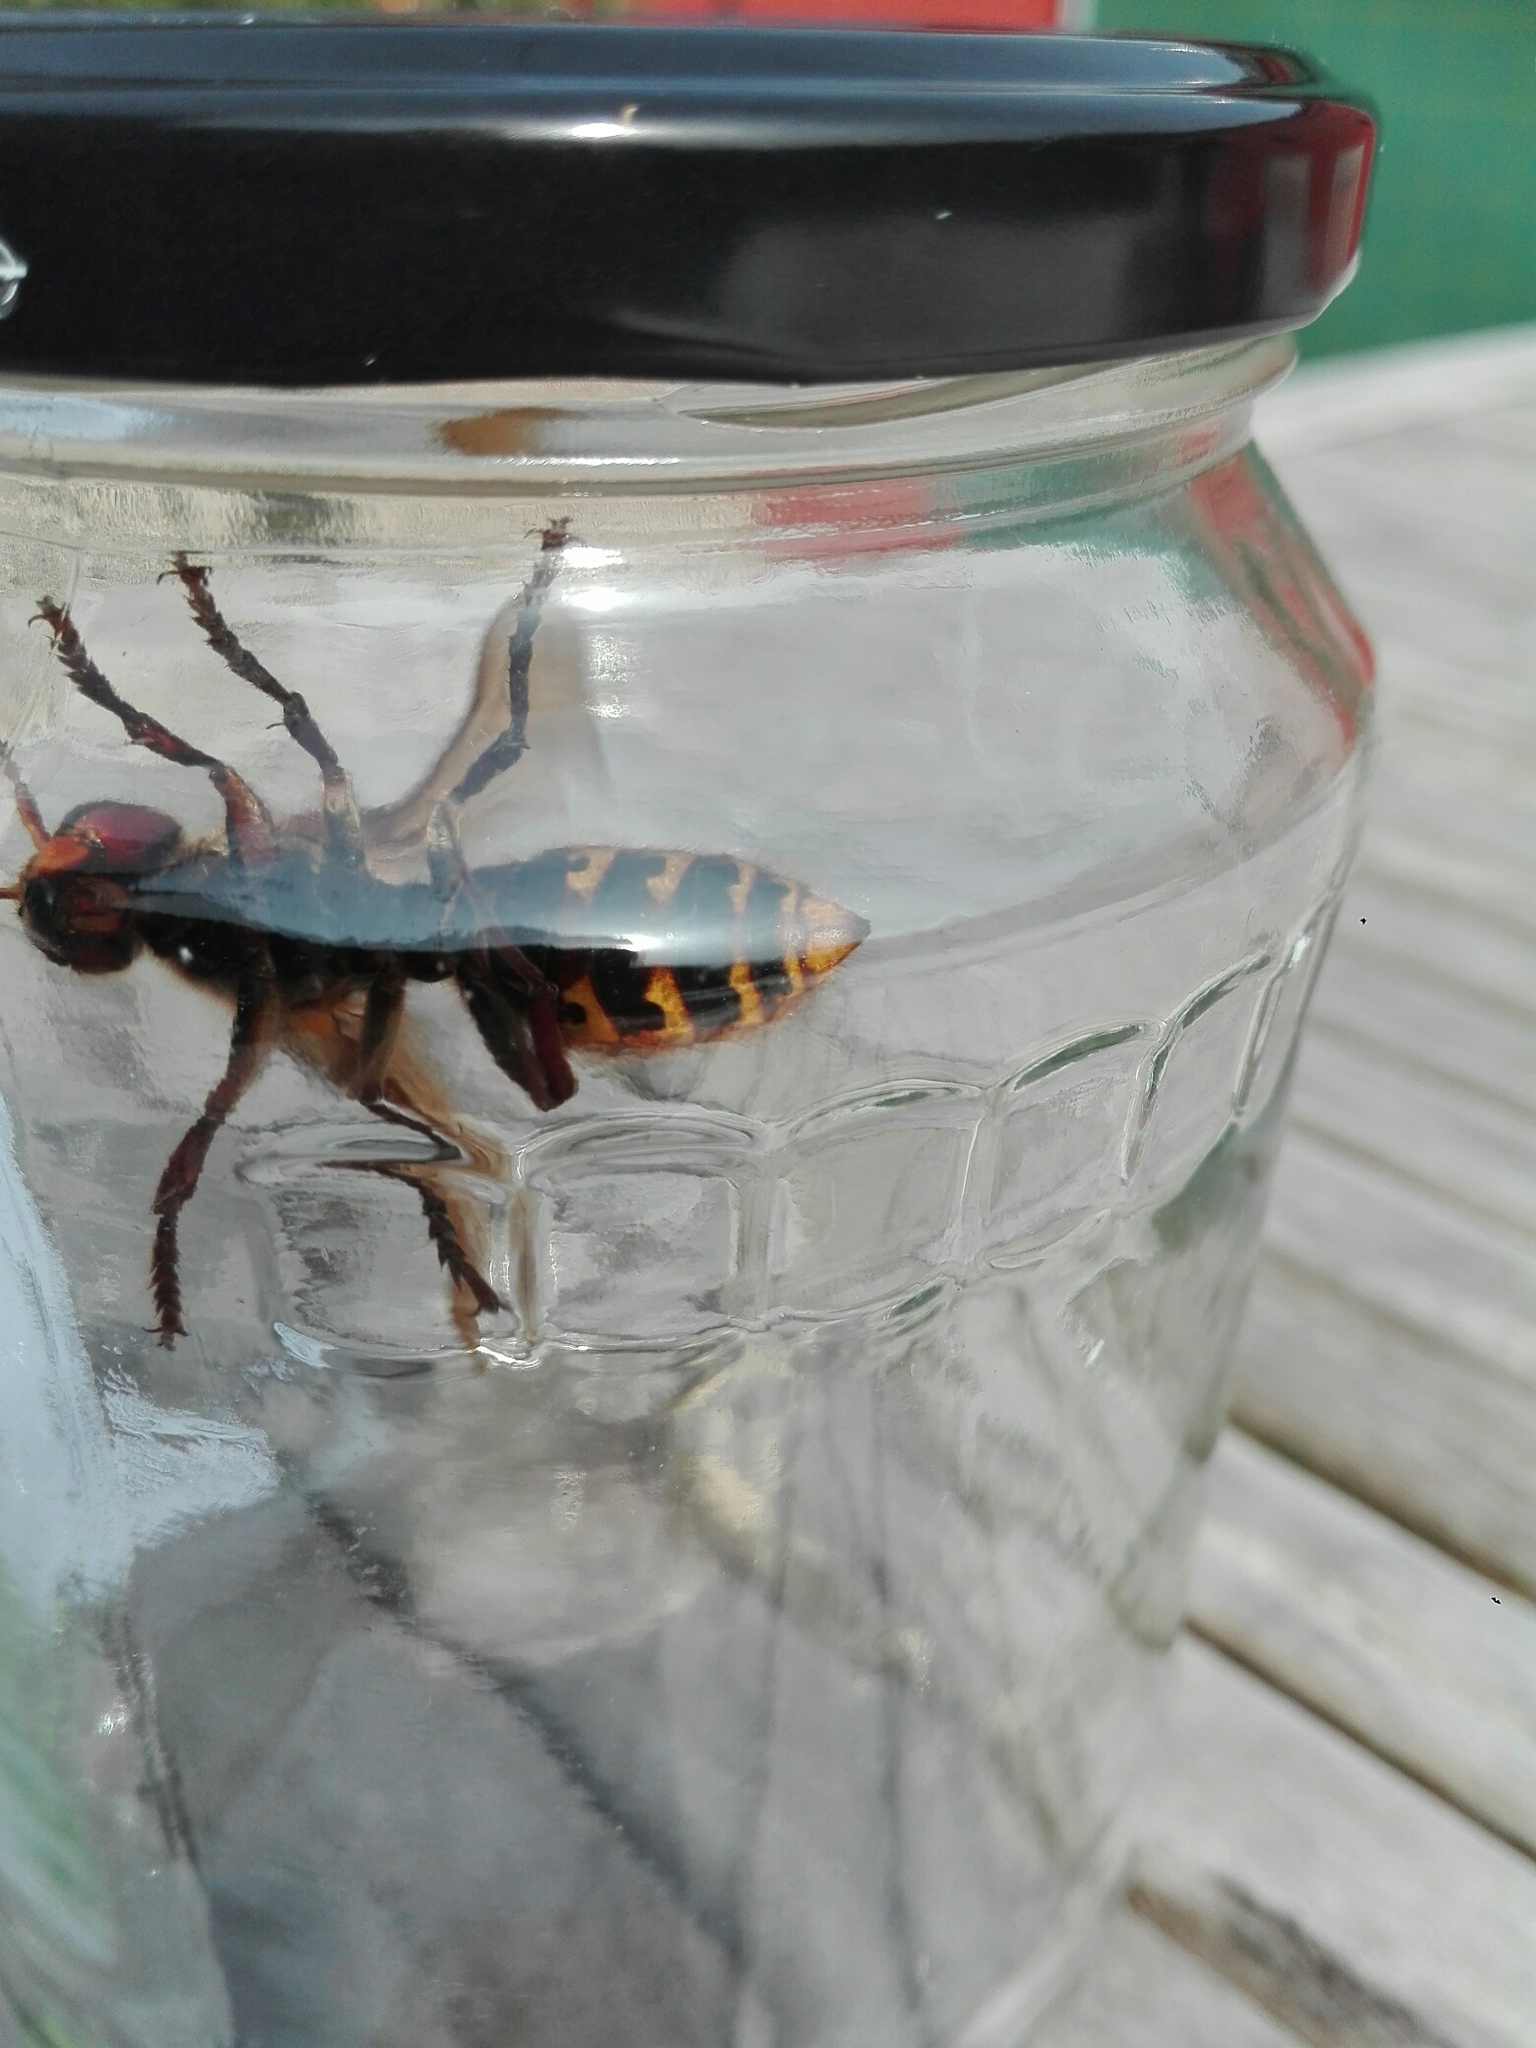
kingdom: Animalia
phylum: Arthropoda
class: Insecta
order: Hymenoptera
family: Vespidae
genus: Vespa
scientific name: Vespa crabro
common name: Hornet
